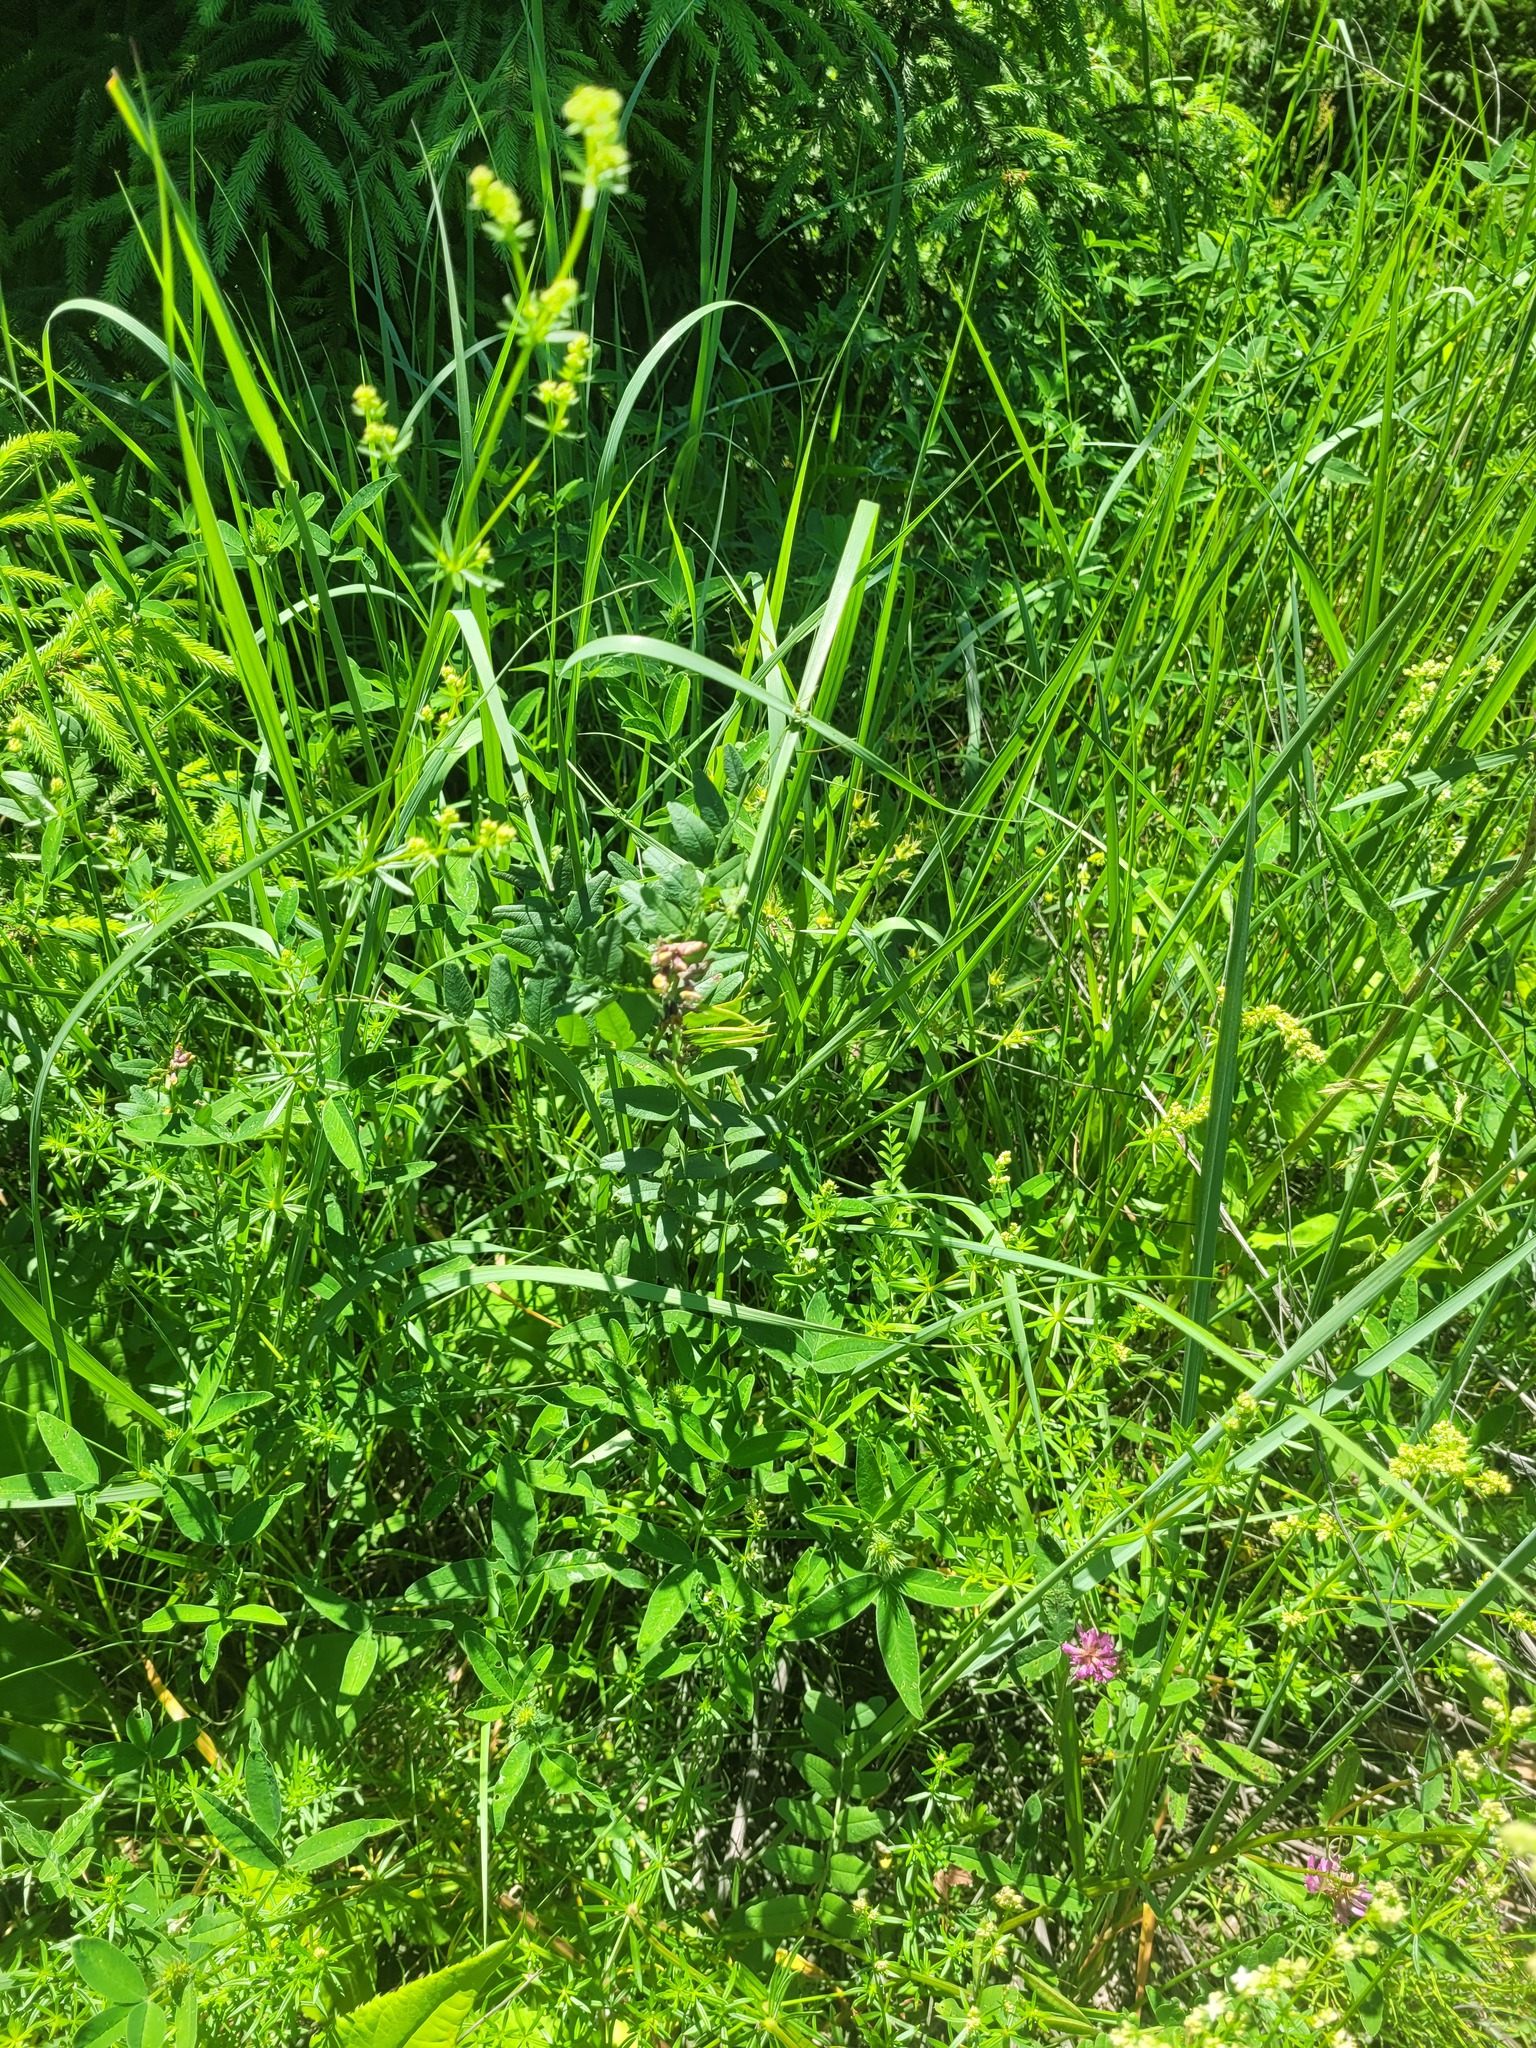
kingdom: Plantae
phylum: Tracheophyta
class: Magnoliopsida
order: Fabales
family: Fabaceae
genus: Vicia
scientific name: Vicia sepium
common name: Bush vetch
